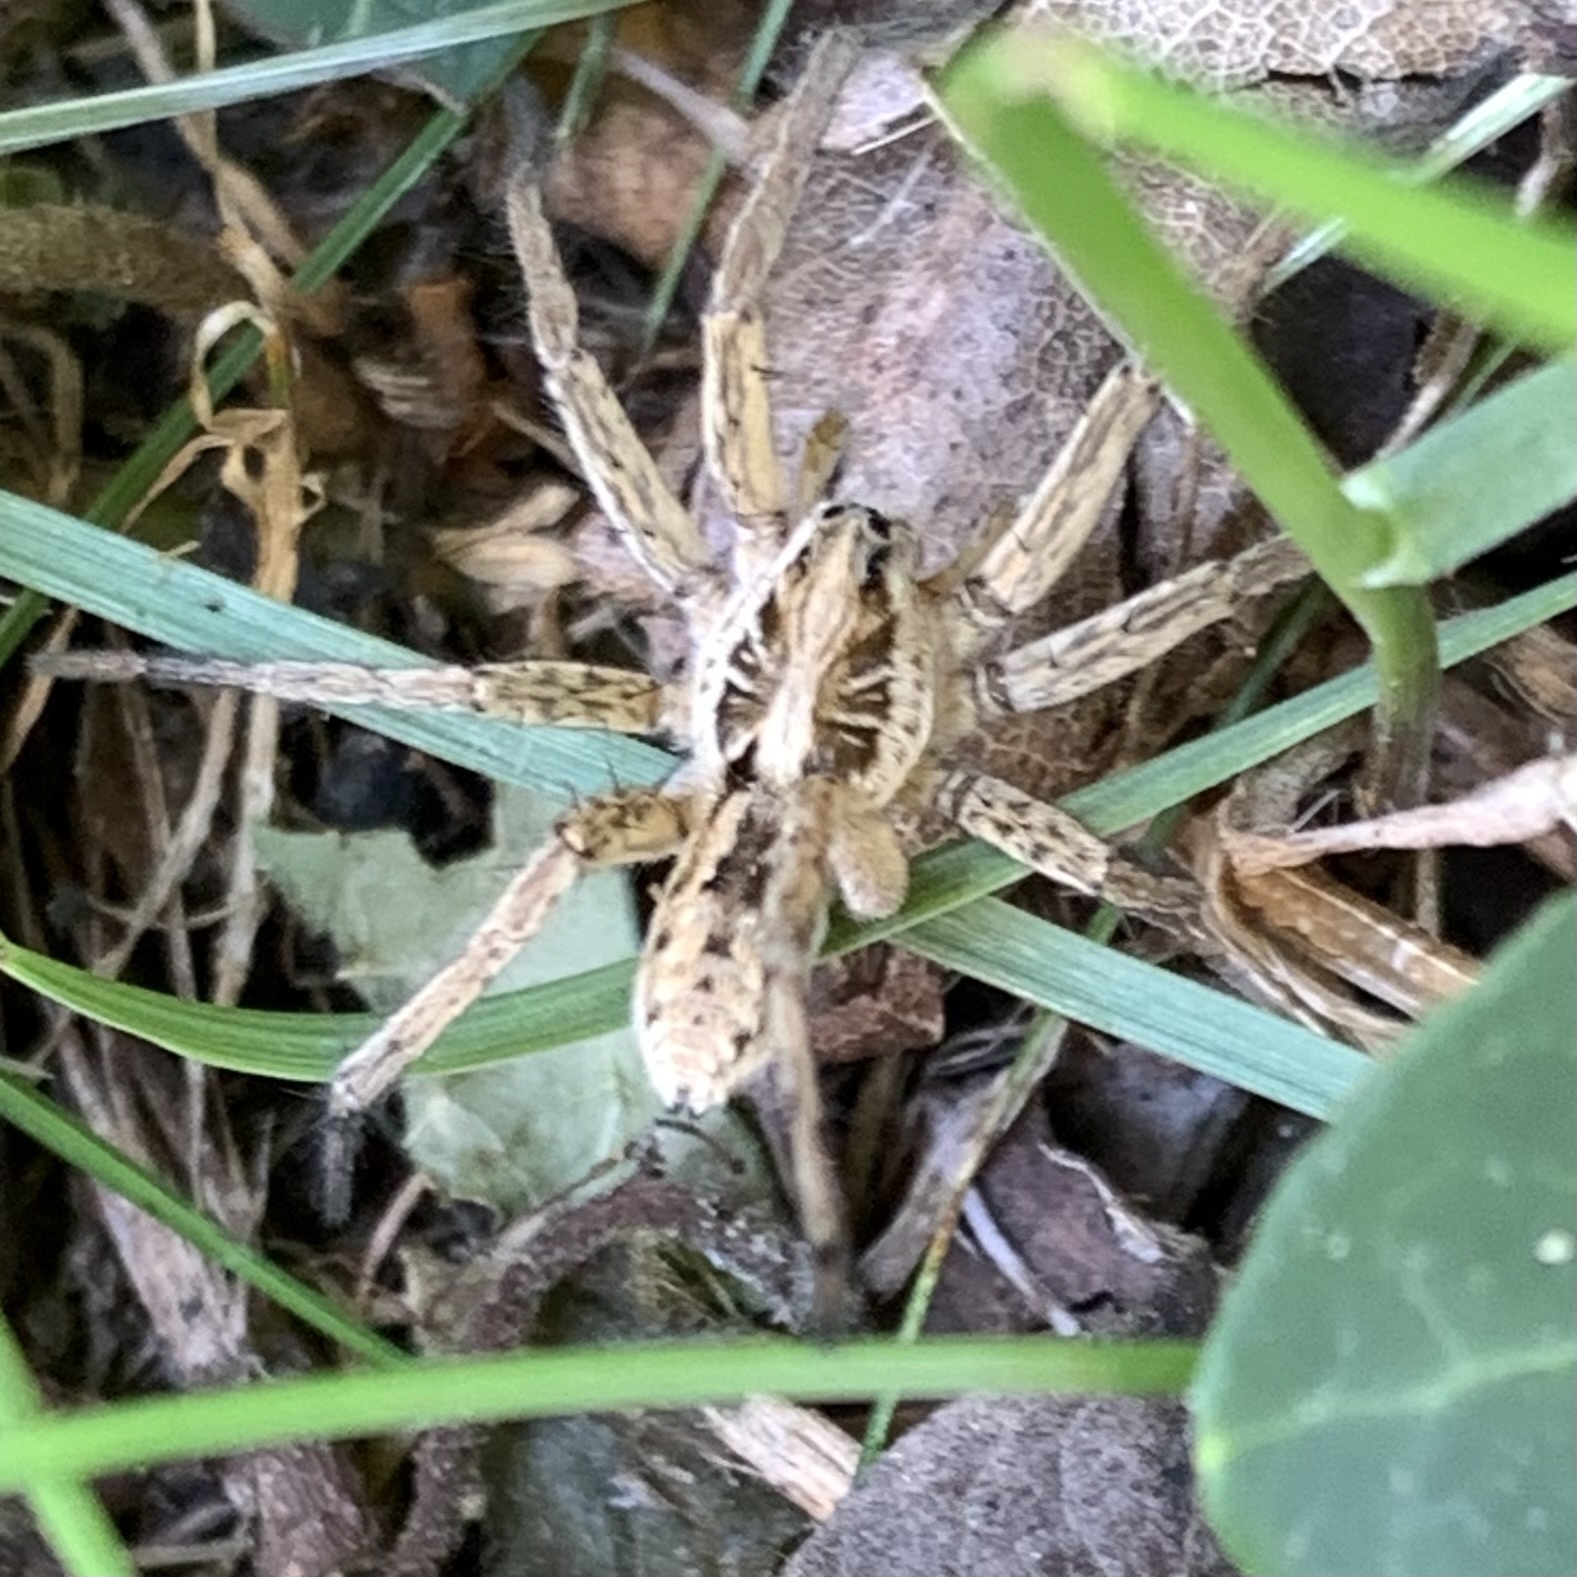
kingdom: Animalia
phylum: Arthropoda
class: Arachnida
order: Araneae
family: Lycosidae
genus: Hogna
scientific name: Hogna radiata
